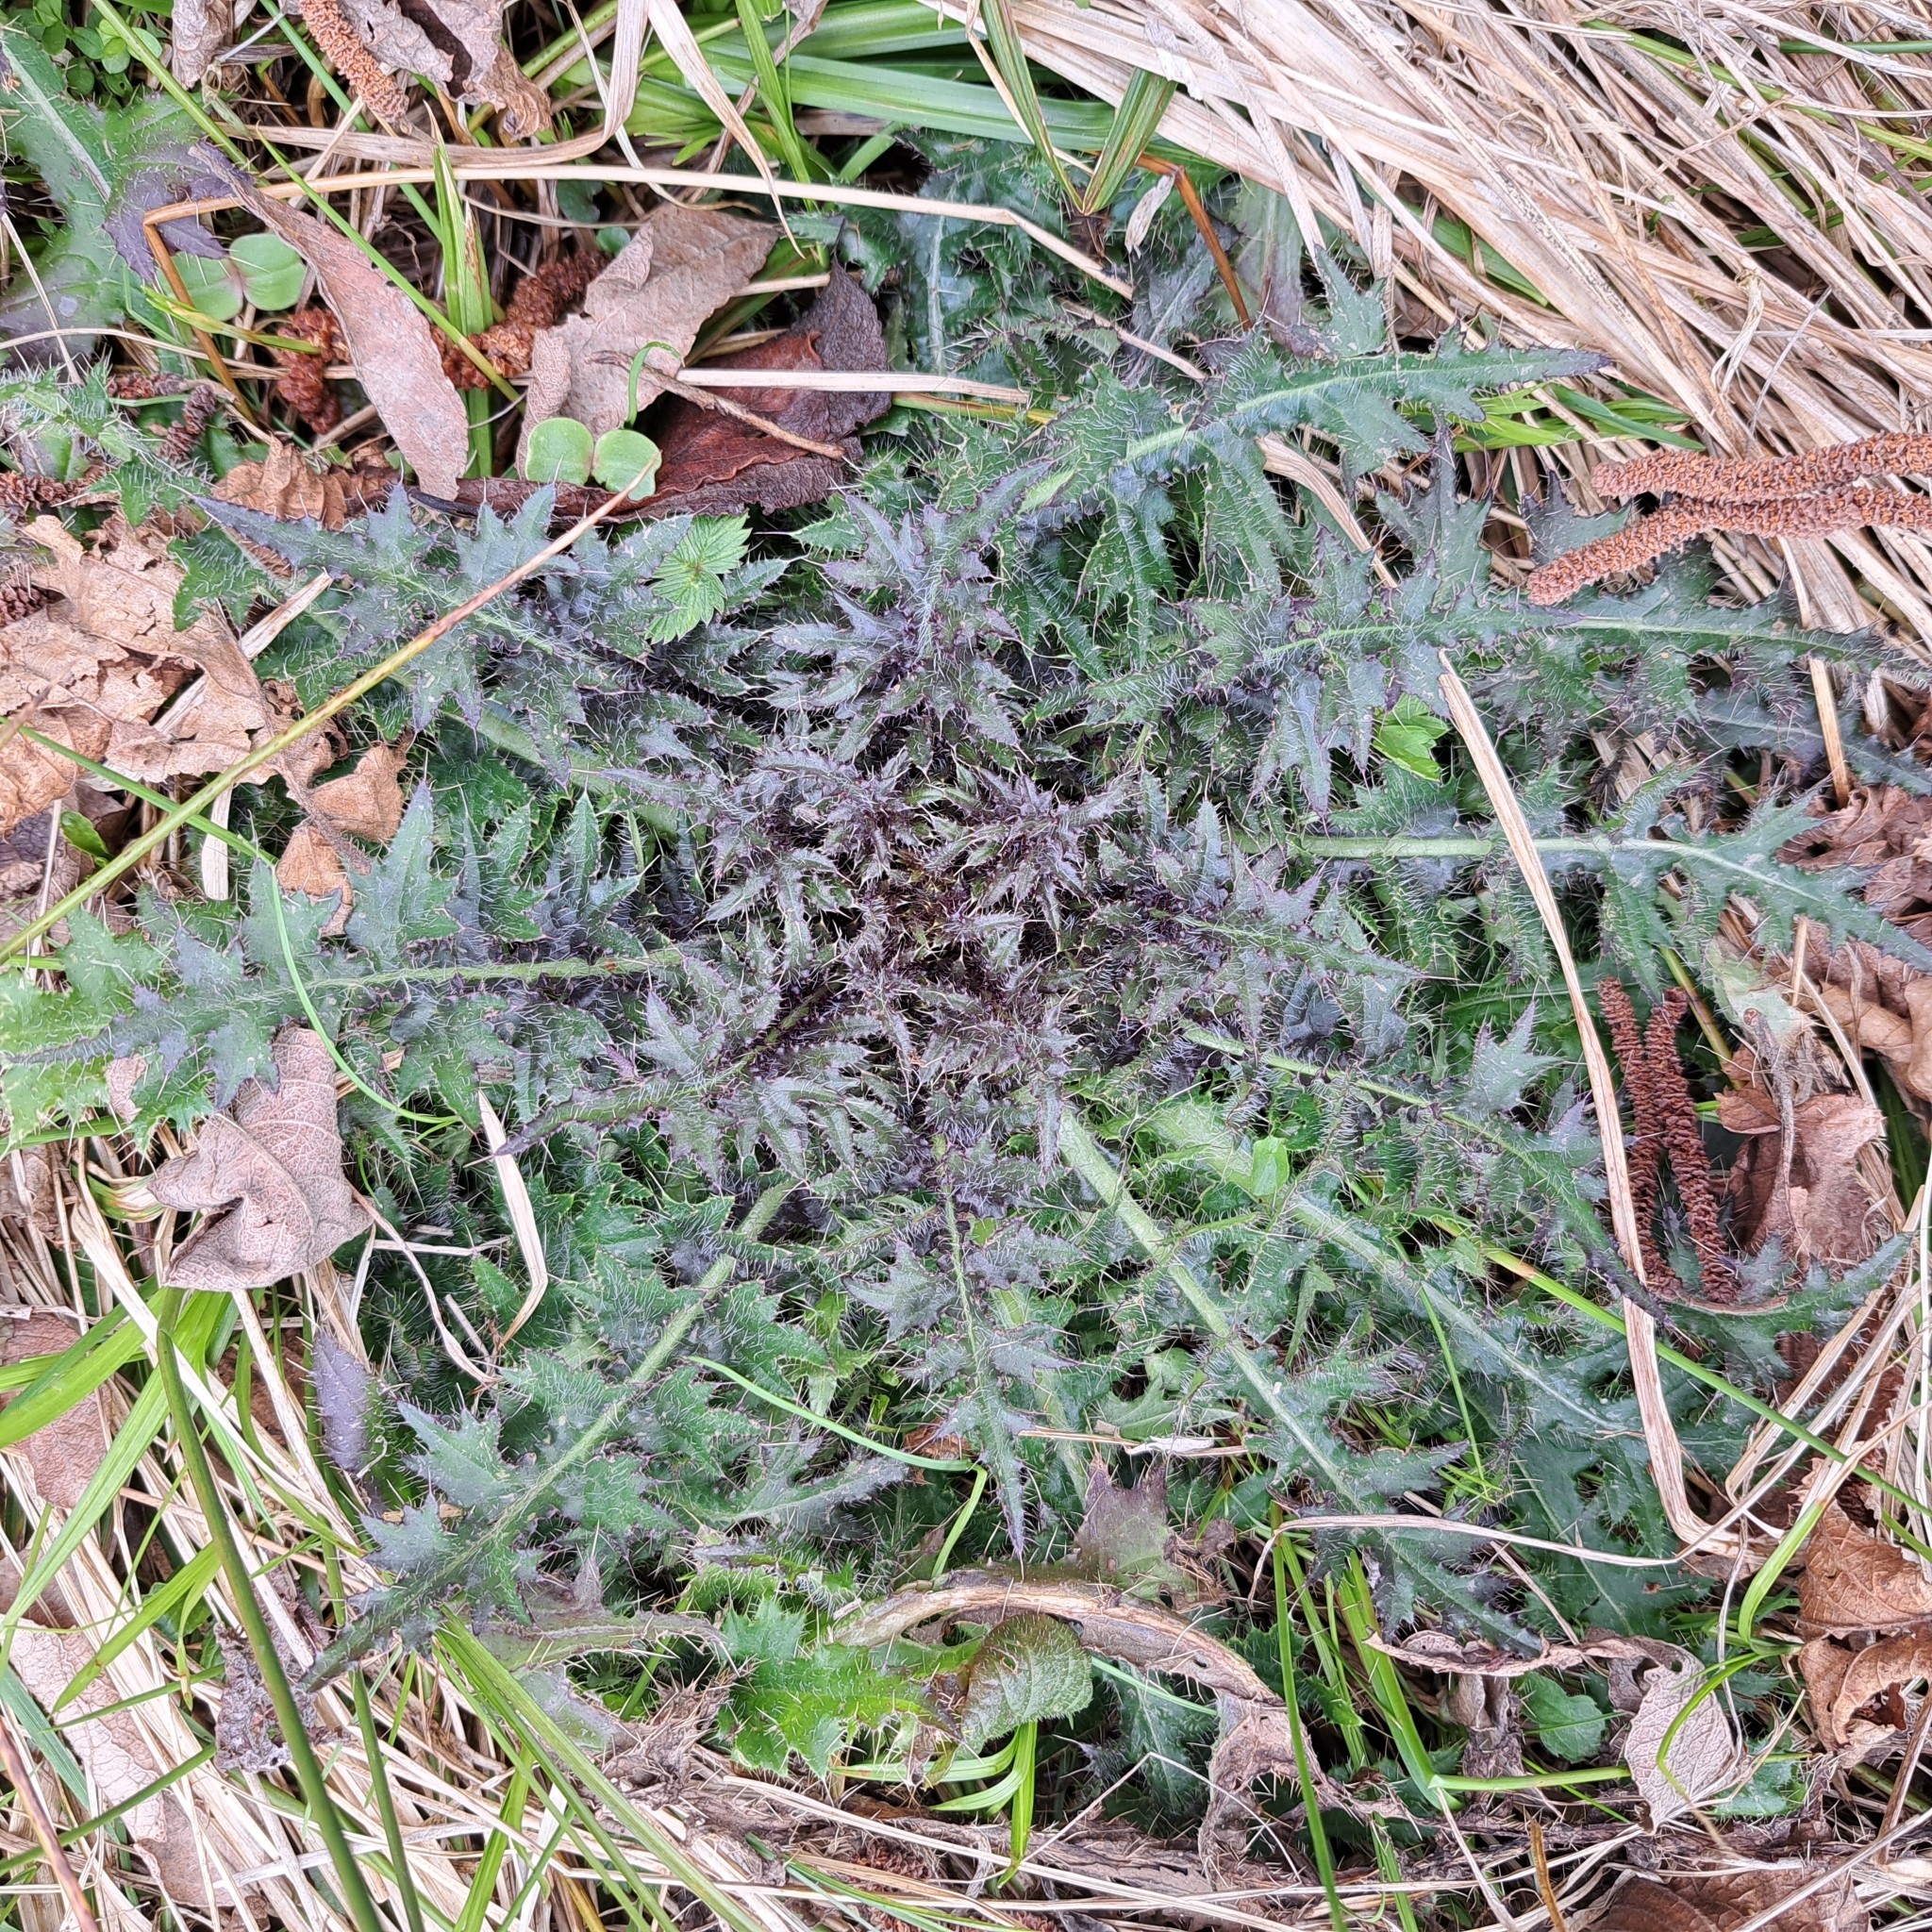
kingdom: Plantae
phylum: Tracheophyta
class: Magnoliopsida
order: Asterales
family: Asteraceae
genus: Cirsium
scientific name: Cirsium palustre
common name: Marsh thistle
